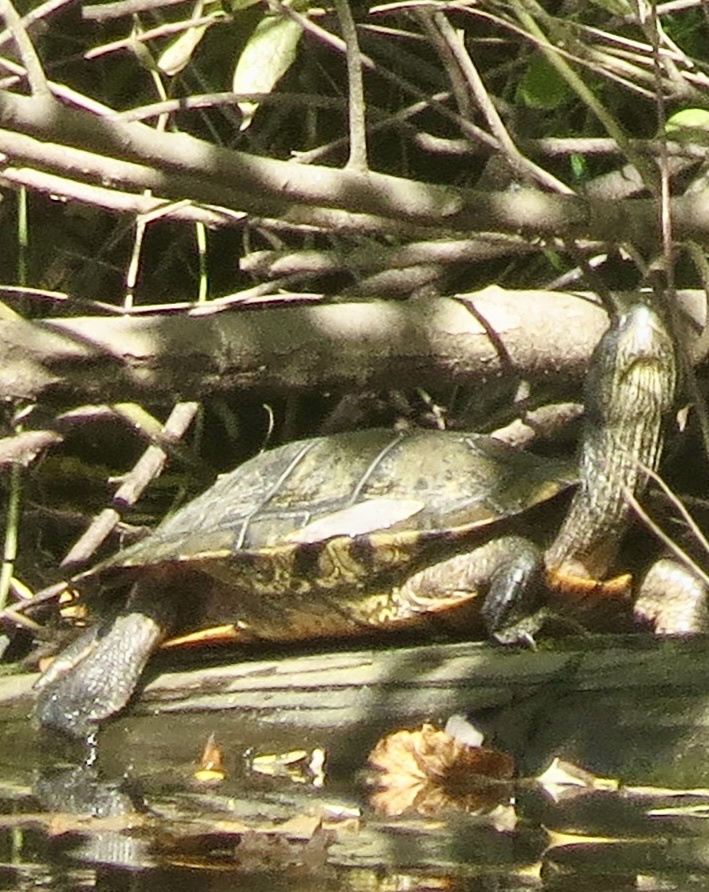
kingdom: Animalia
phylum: Chordata
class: Testudines
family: Emydidae
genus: Trachemys
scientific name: Trachemys scripta
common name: Slider
